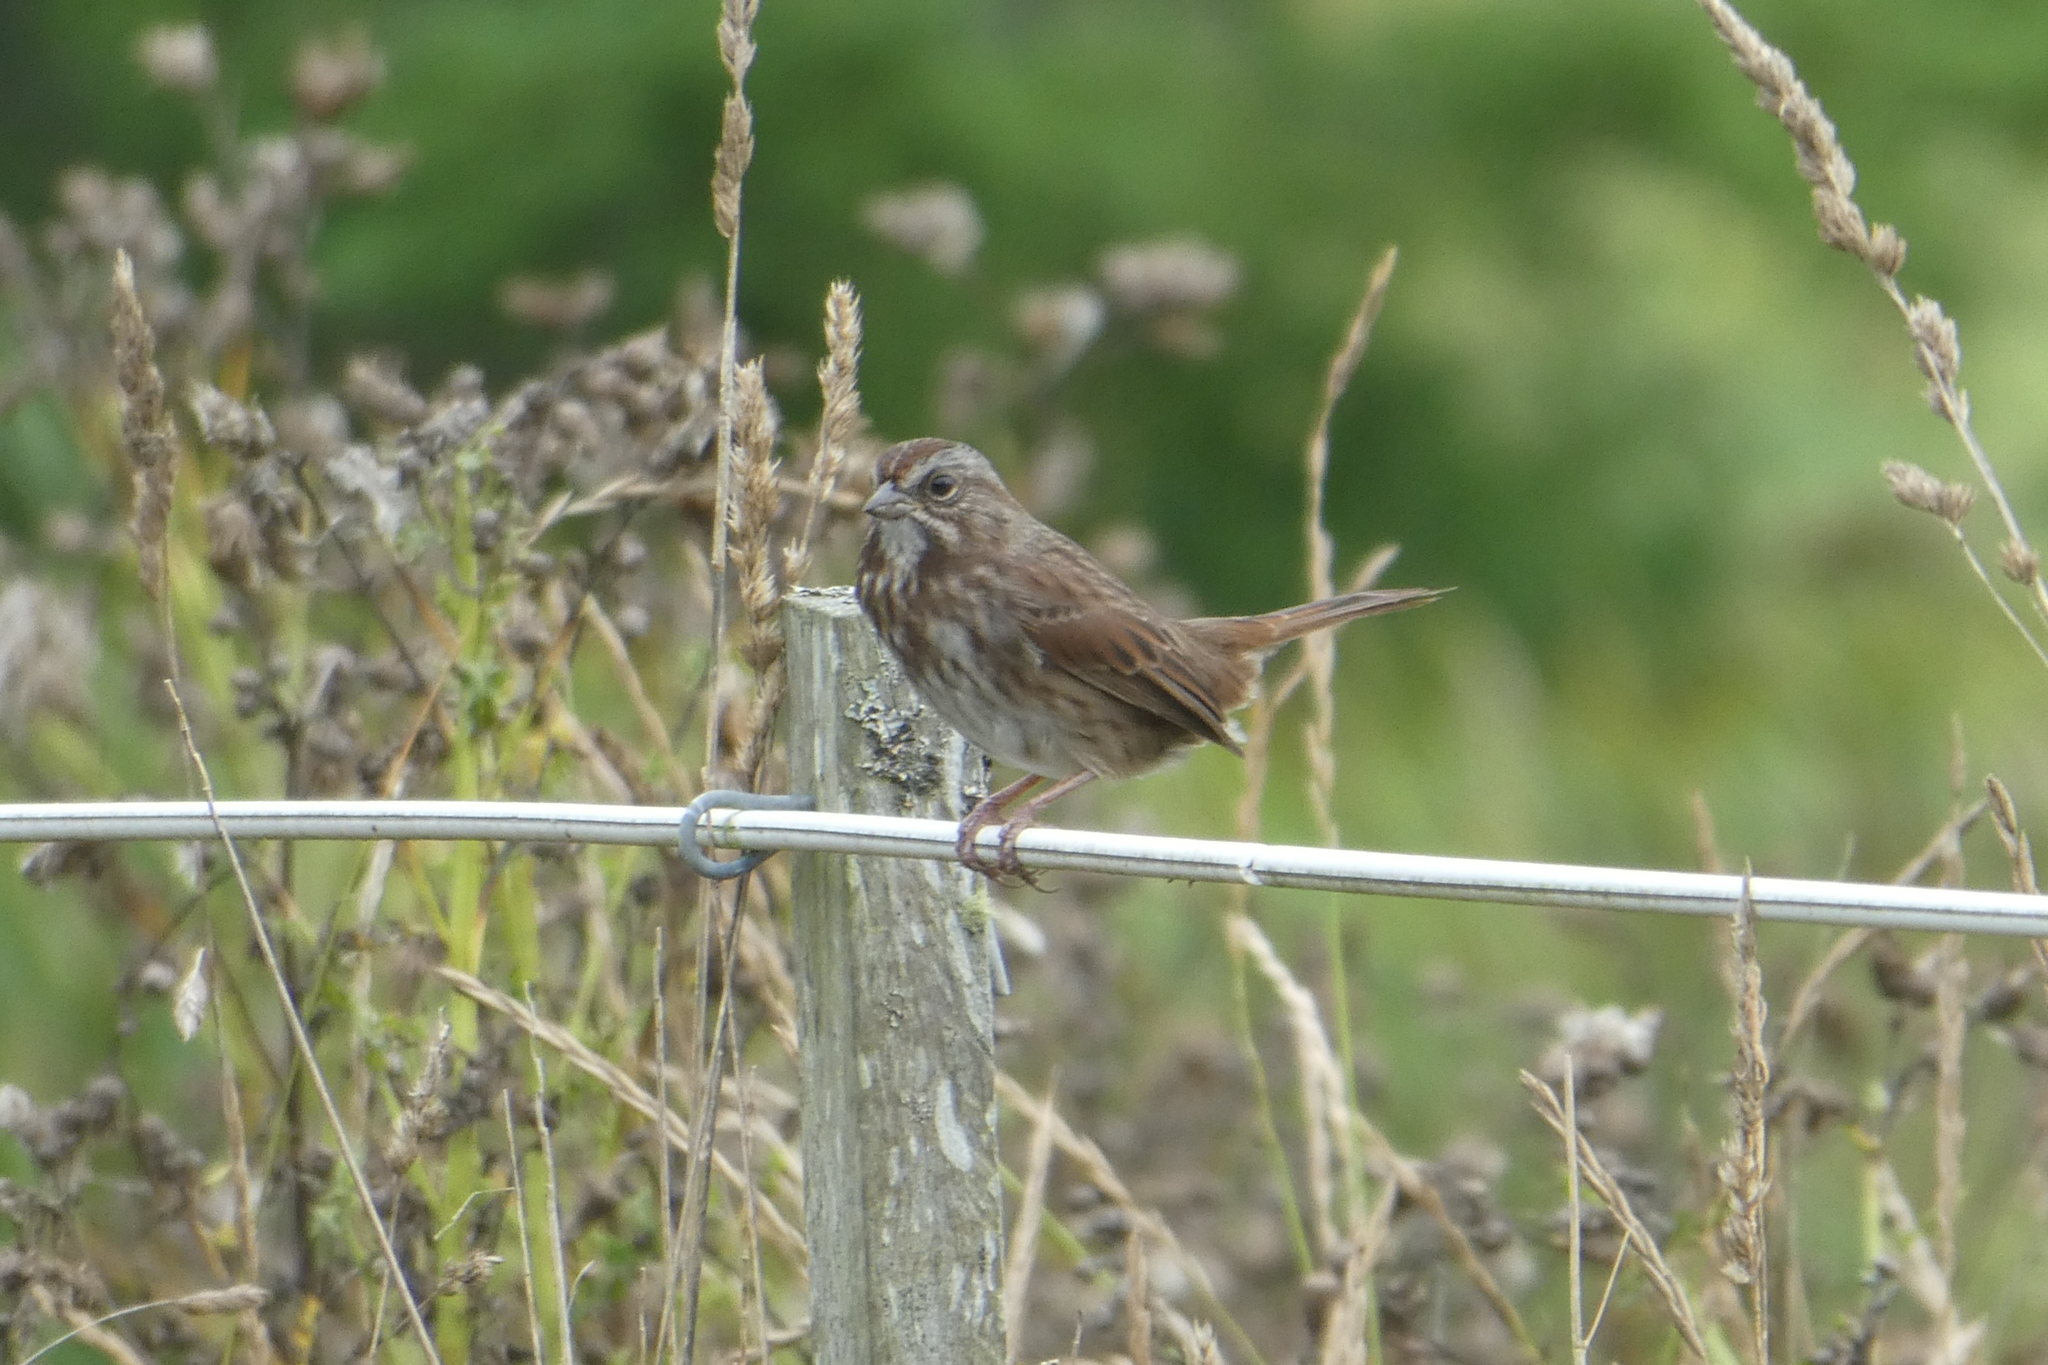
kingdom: Animalia
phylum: Chordata
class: Aves
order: Passeriformes
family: Passerellidae
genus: Melospiza
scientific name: Melospiza melodia
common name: Song sparrow
